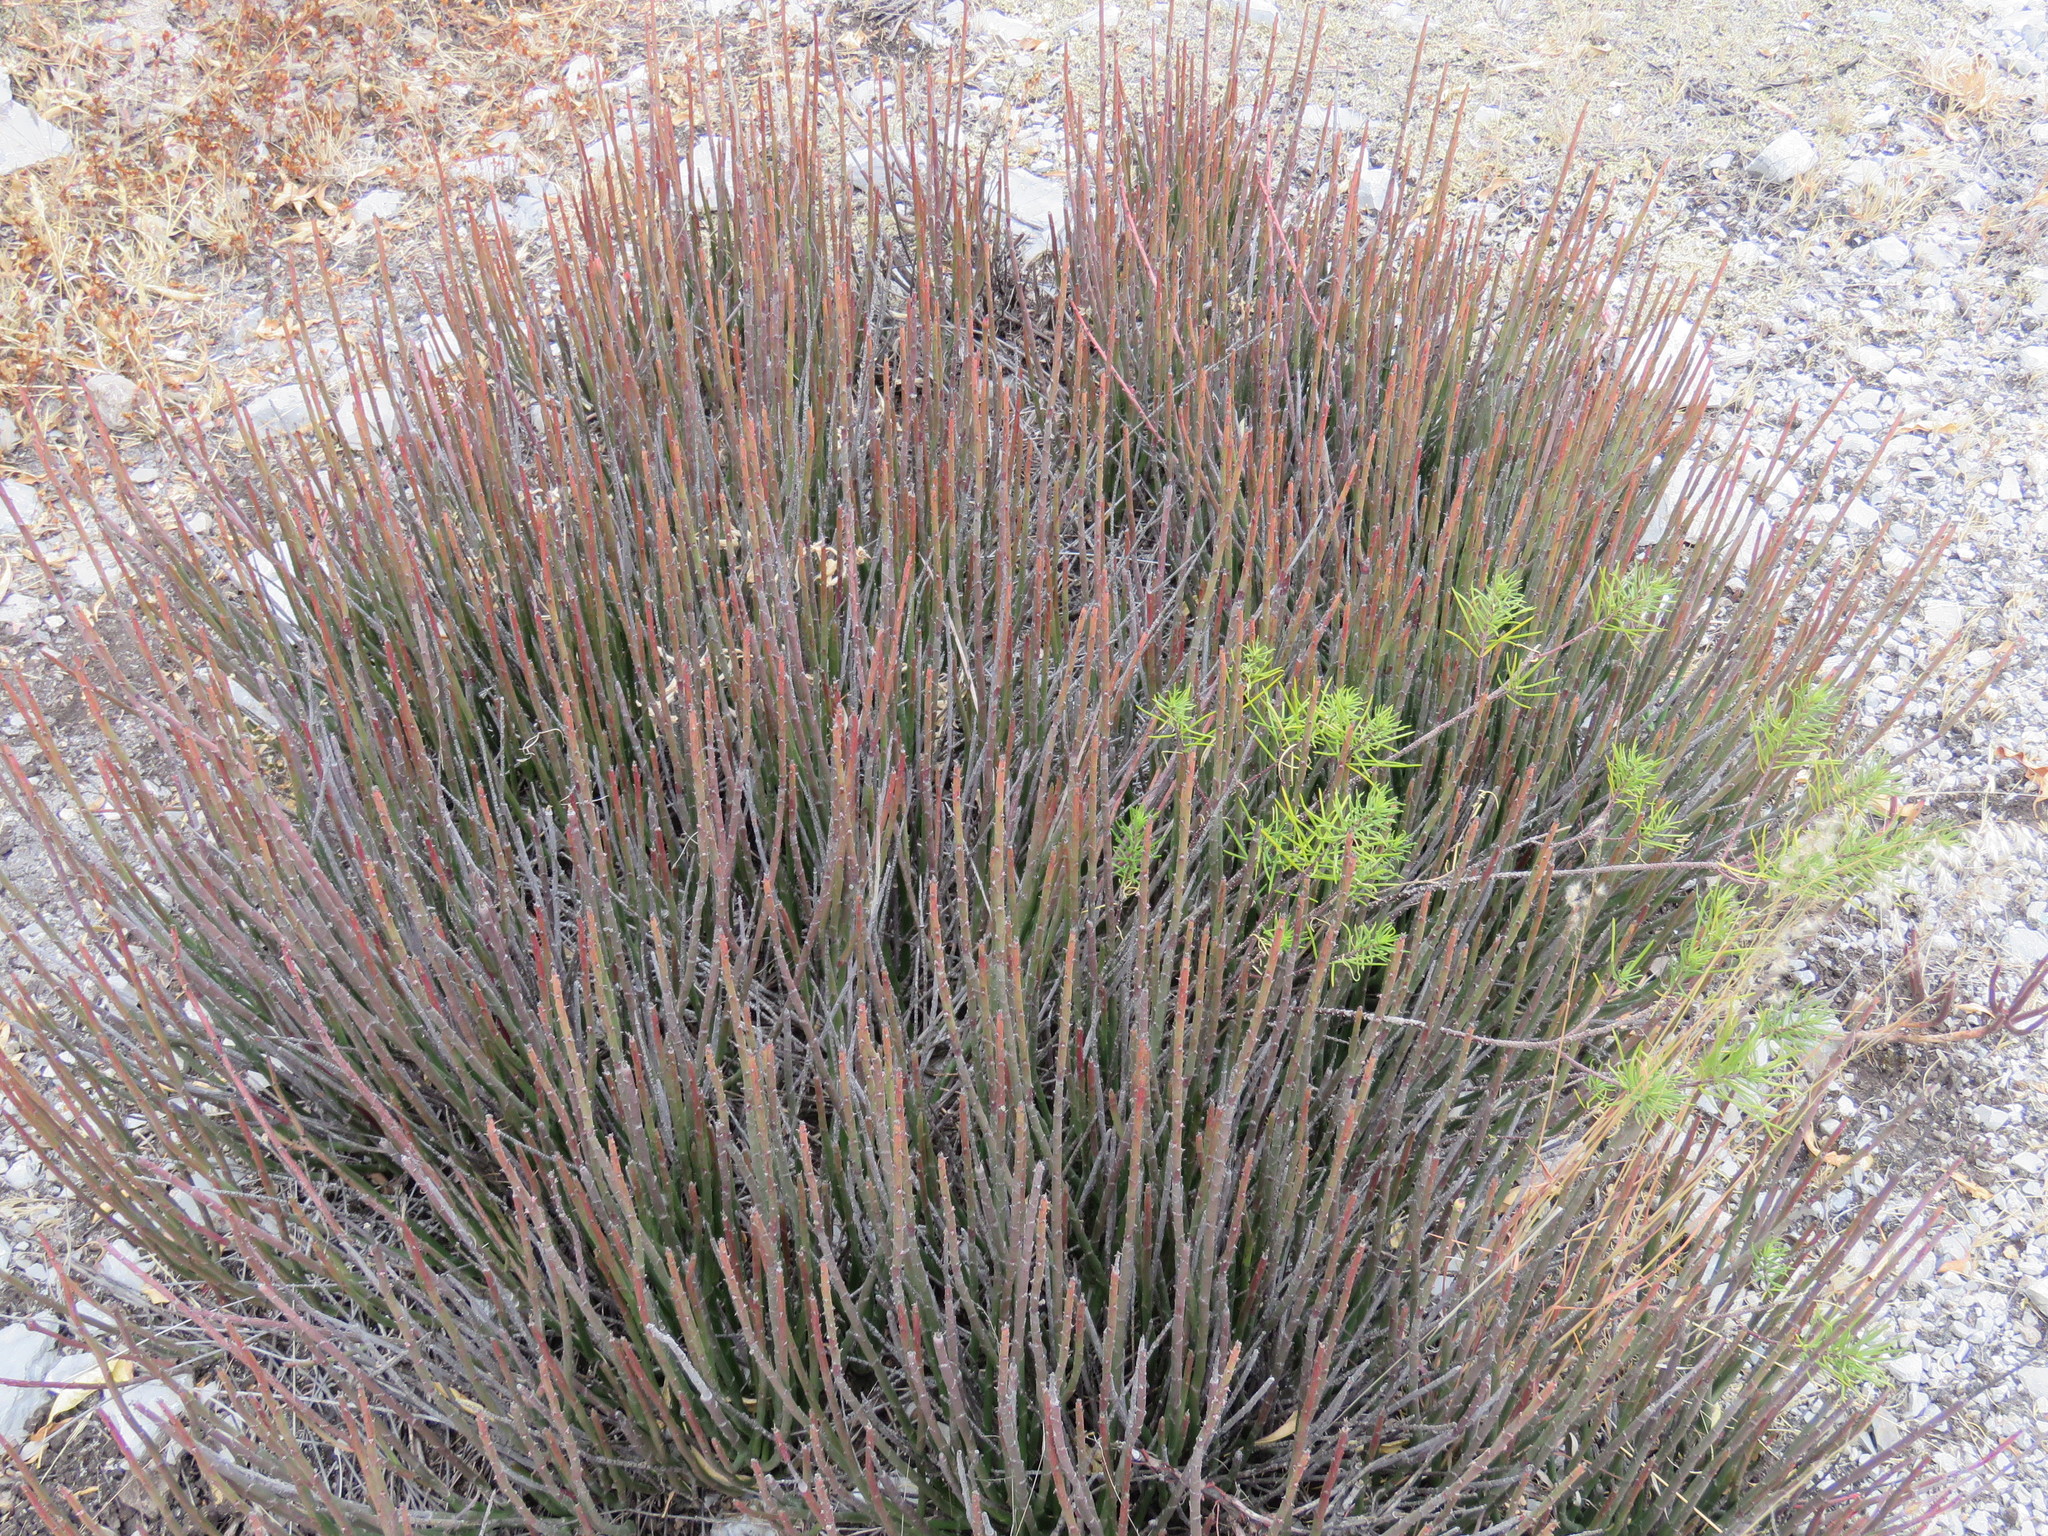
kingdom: Plantae
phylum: Tracheophyta
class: Magnoliopsida
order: Malpighiales
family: Euphorbiaceae
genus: Euphorbia
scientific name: Euphorbia antisyphilitica
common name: Candelilla
